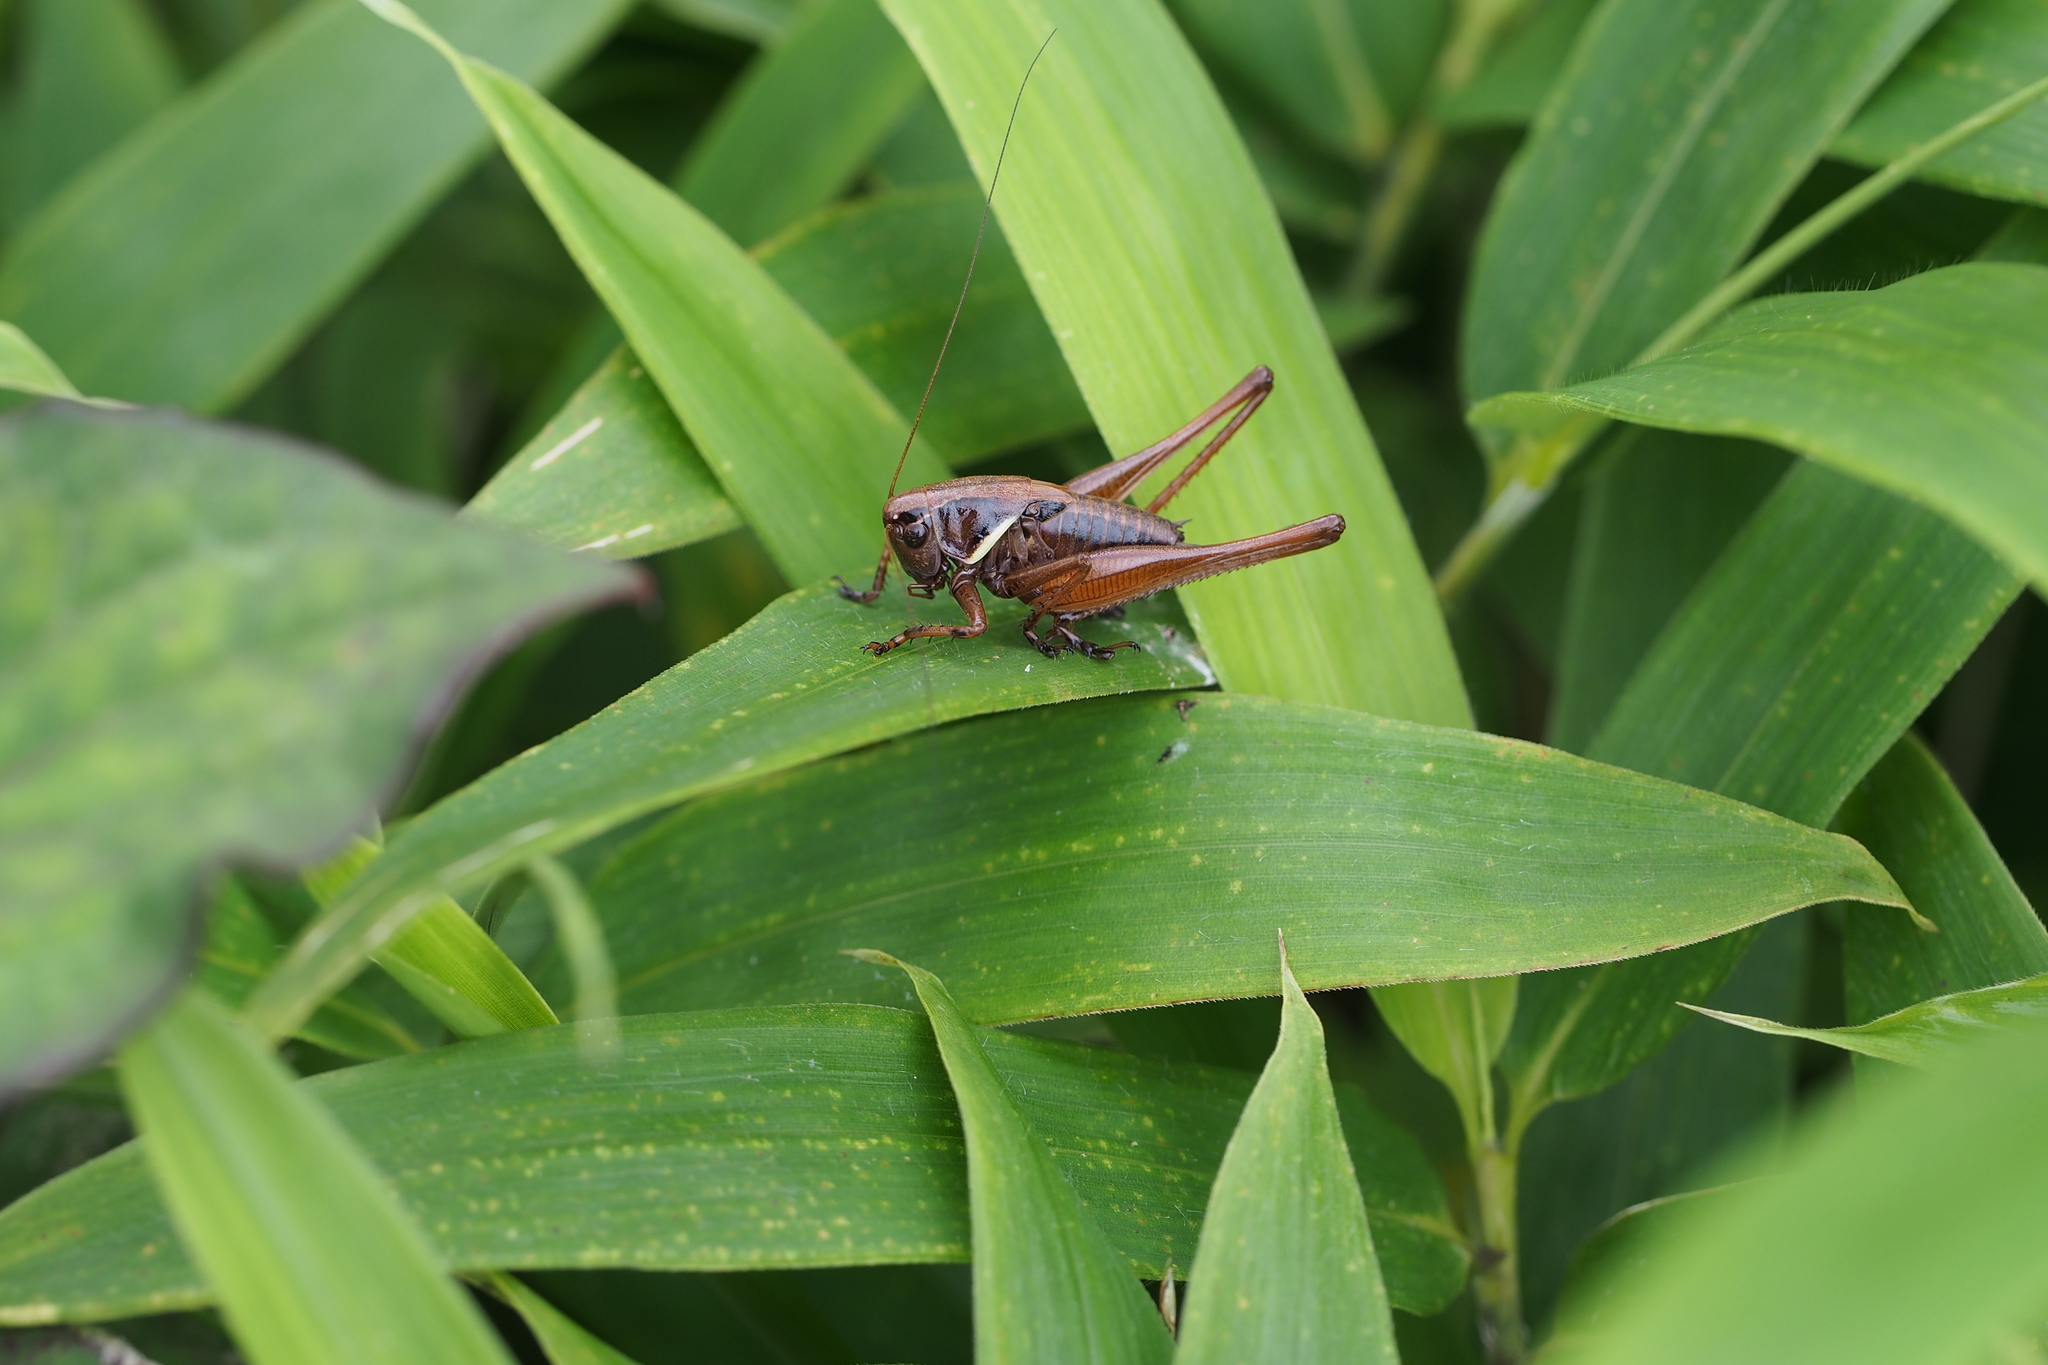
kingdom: Animalia
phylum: Arthropoda
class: Insecta
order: Orthoptera
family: Tettigoniidae
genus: Eobiana
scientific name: Eobiana engelhardti
